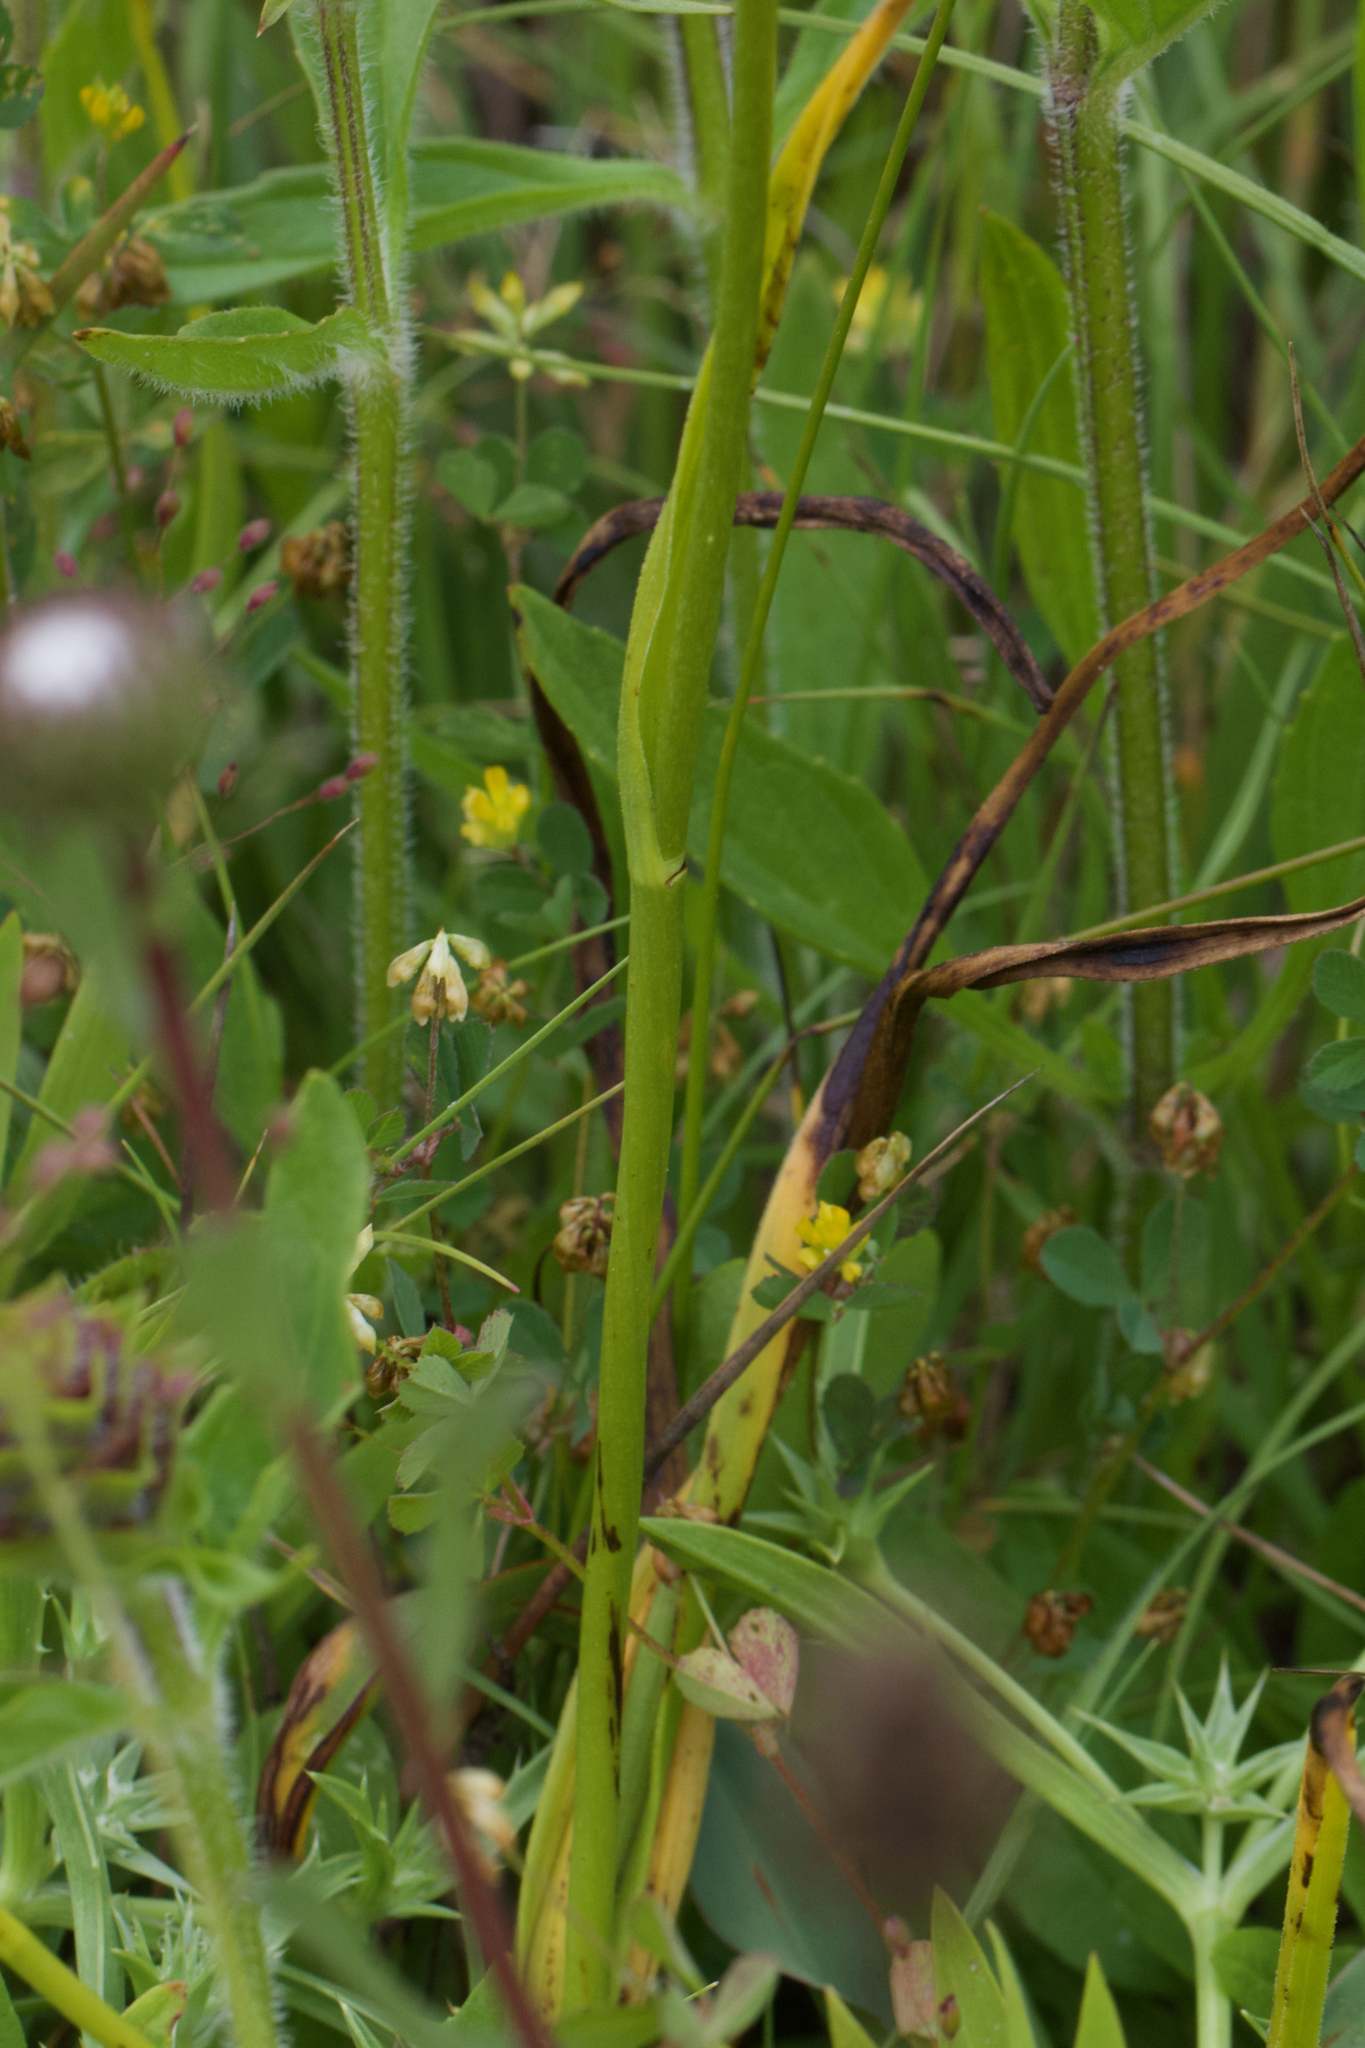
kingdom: Plantae
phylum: Tracheophyta
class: Liliopsida
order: Liliales
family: Melanthiaceae
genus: Toxicoscordion
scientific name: Toxicoscordion fremontii
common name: Fremont's death camas
